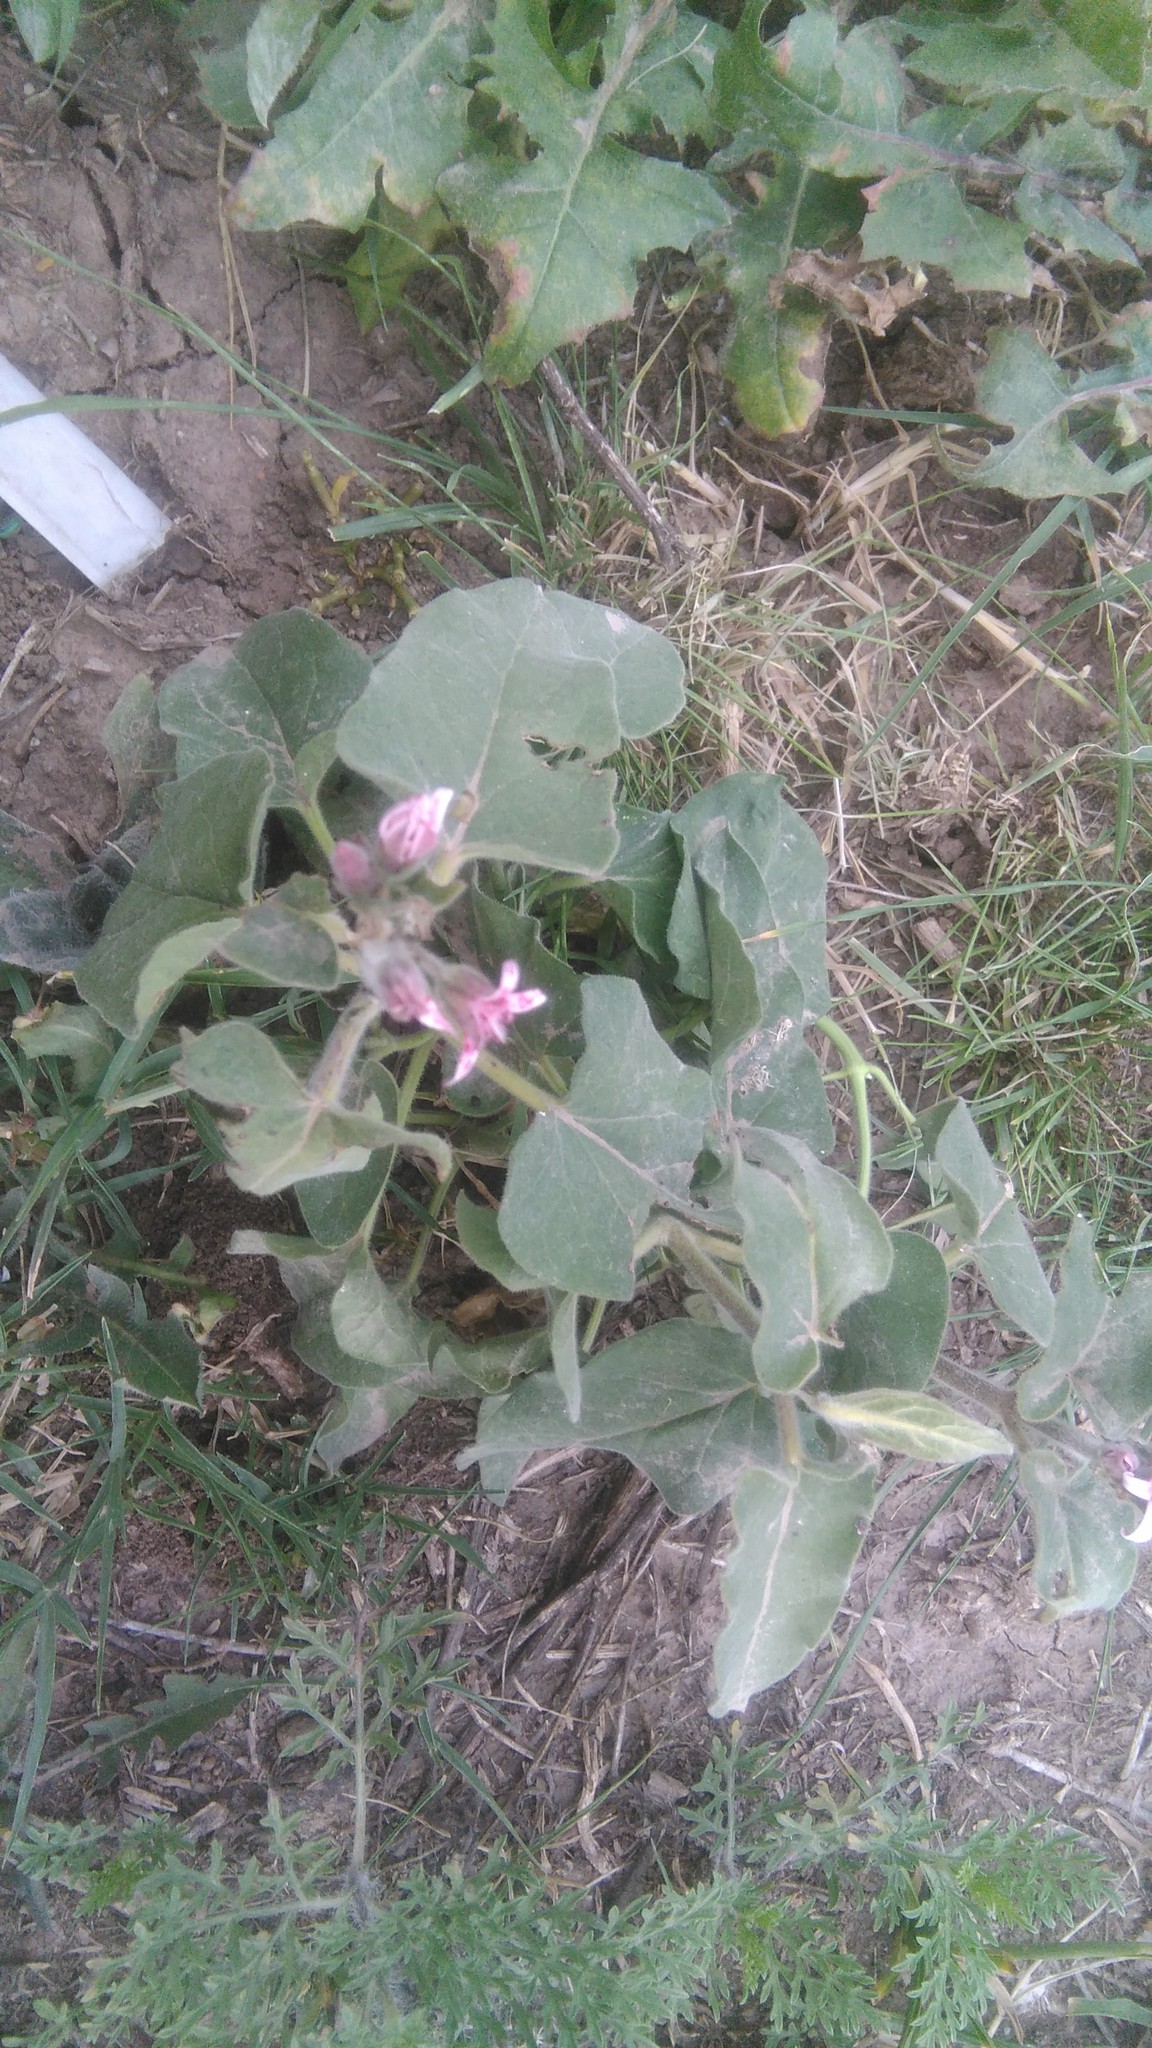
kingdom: Plantae
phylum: Tracheophyta
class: Magnoliopsida
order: Gentianales
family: Apocynaceae
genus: Oxypetalum
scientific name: Oxypetalum solanoides
